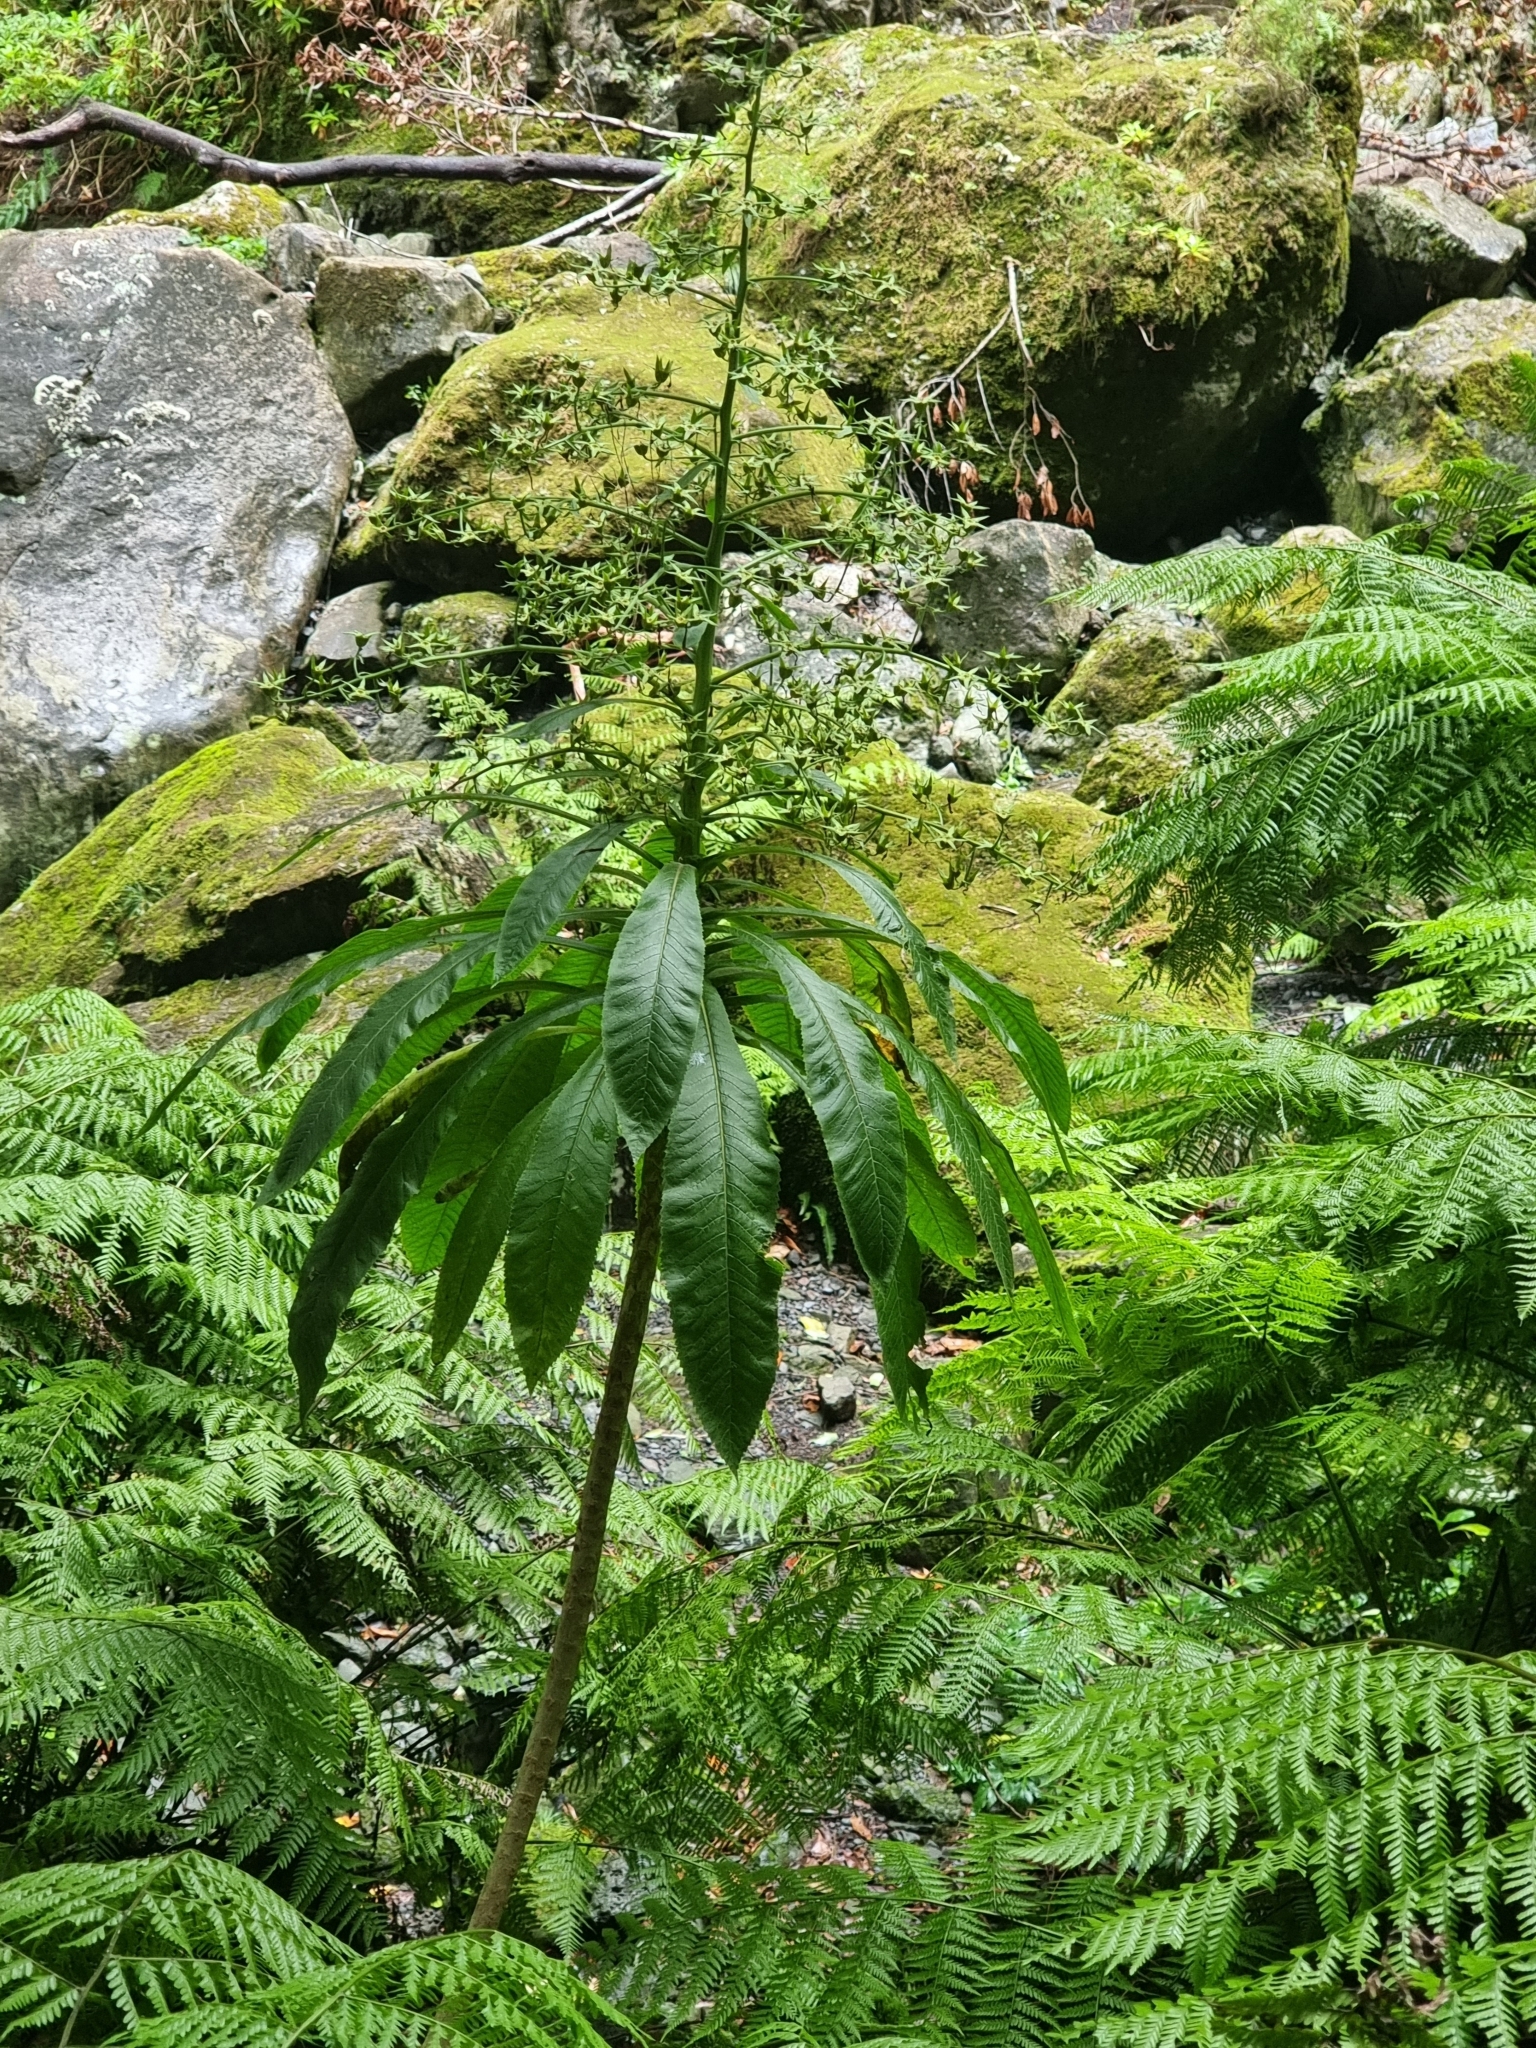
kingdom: Plantae
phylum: Tracheophyta
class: Magnoliopsida
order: Asterales
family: Campanulaceae
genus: Musschia
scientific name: Musschia wollastonii
